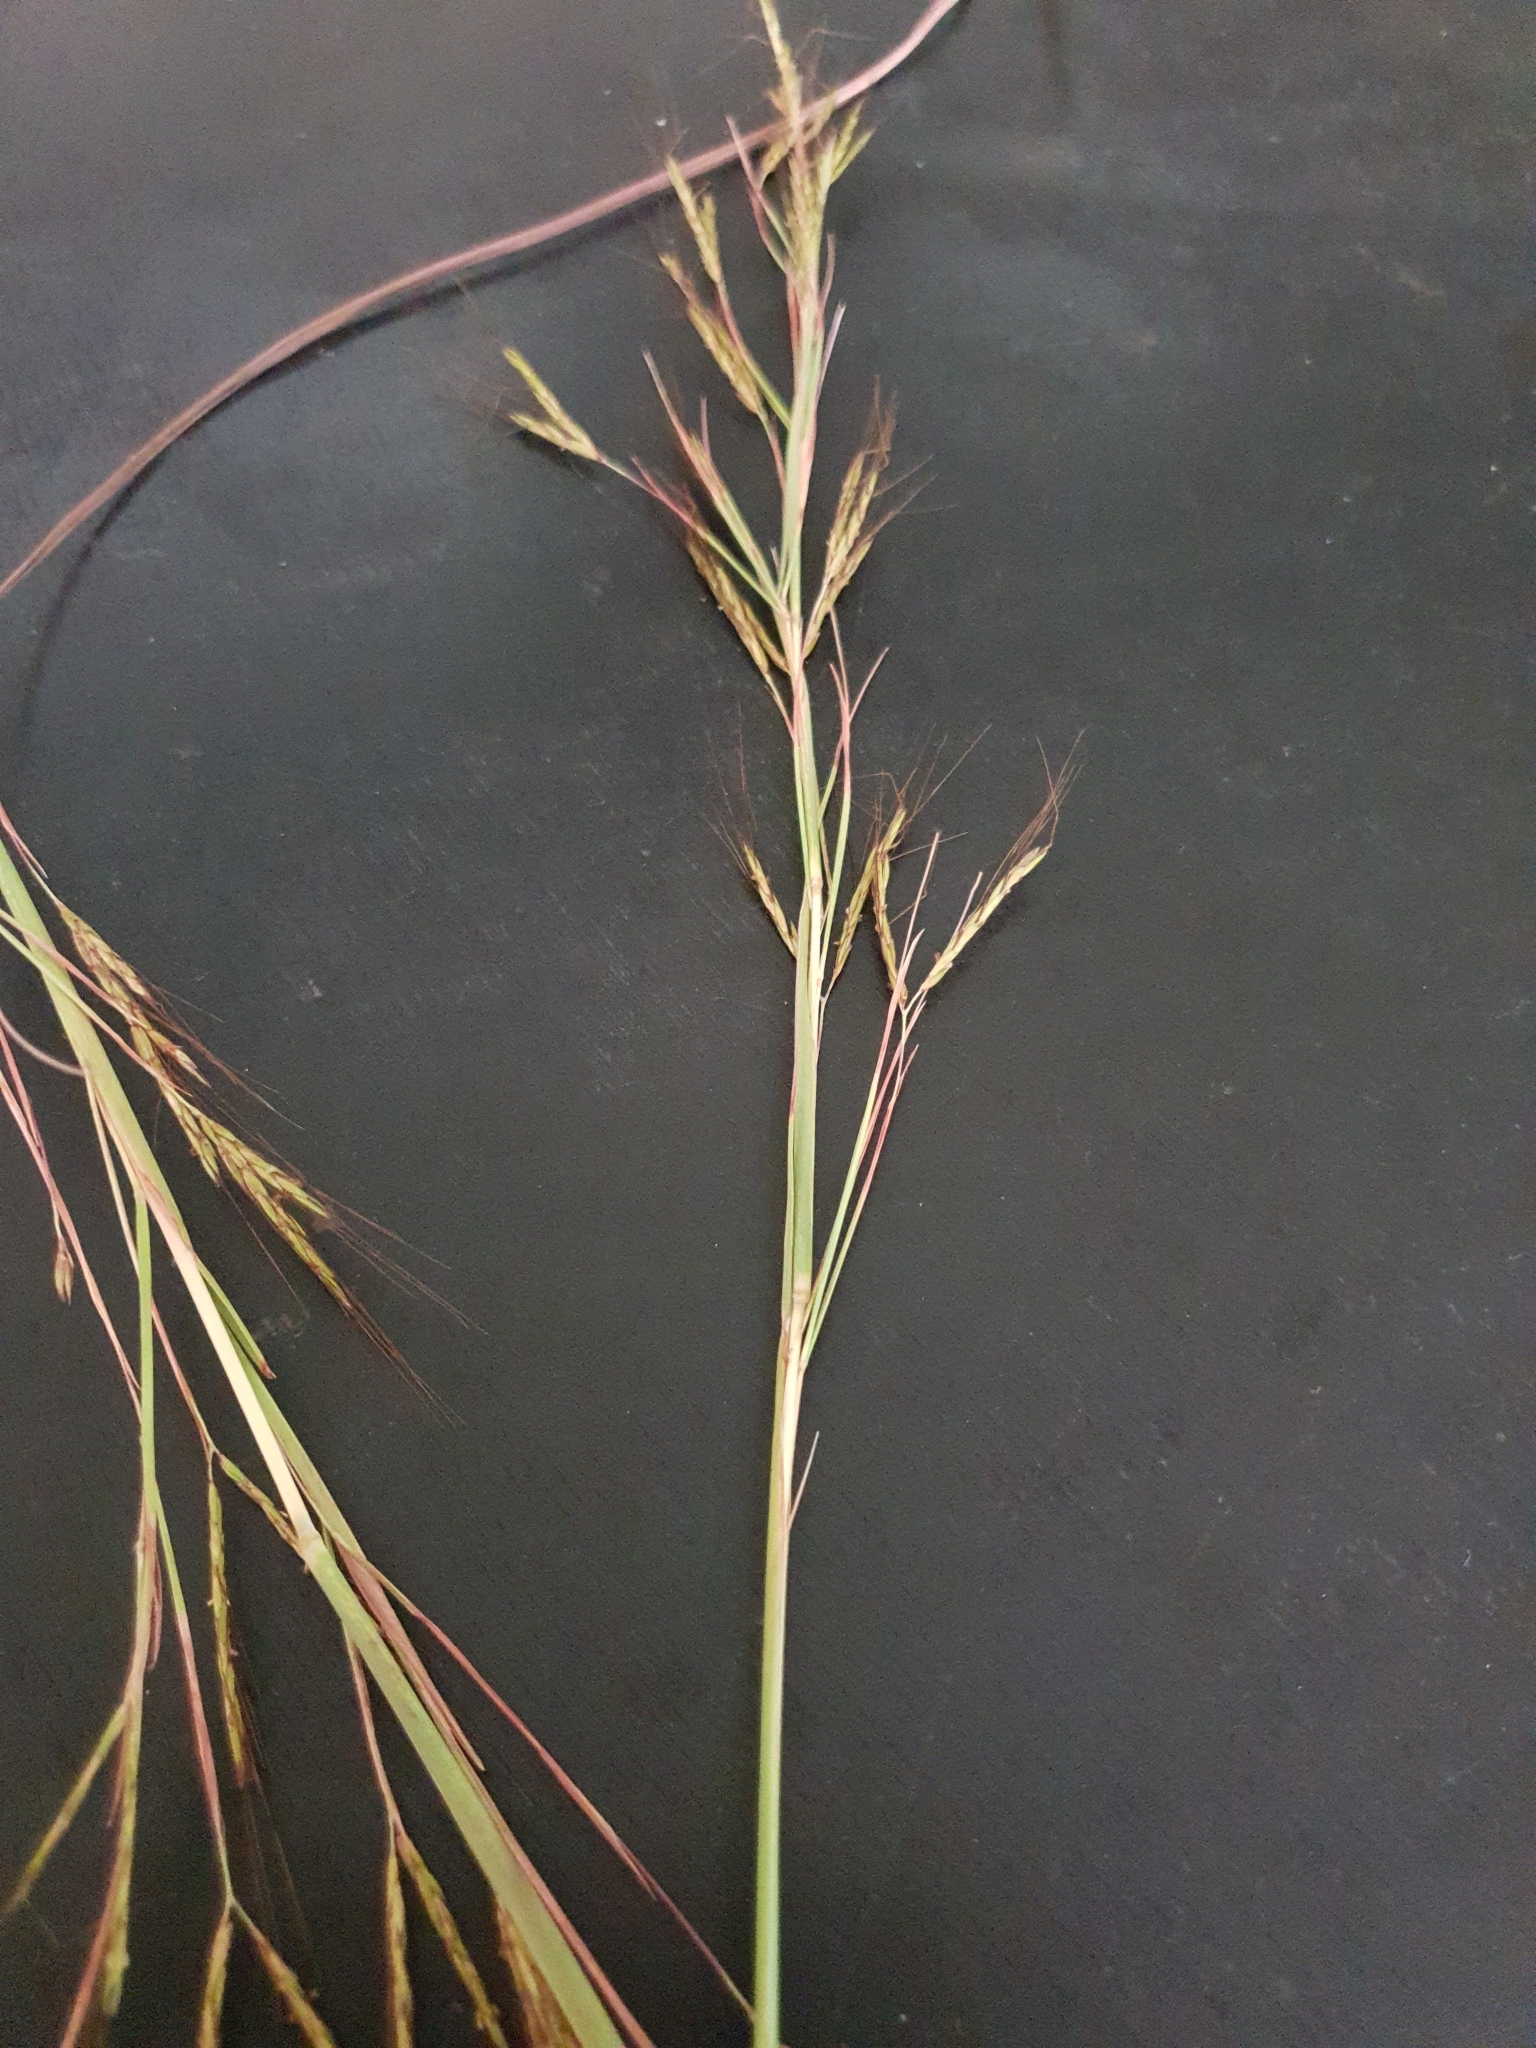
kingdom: Plantae
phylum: Tracheophyta
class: Liliopsida
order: Poales
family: Poaceae
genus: Hyparrhenia
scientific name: Hyparrhenia rufa
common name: Jaraguagrass
